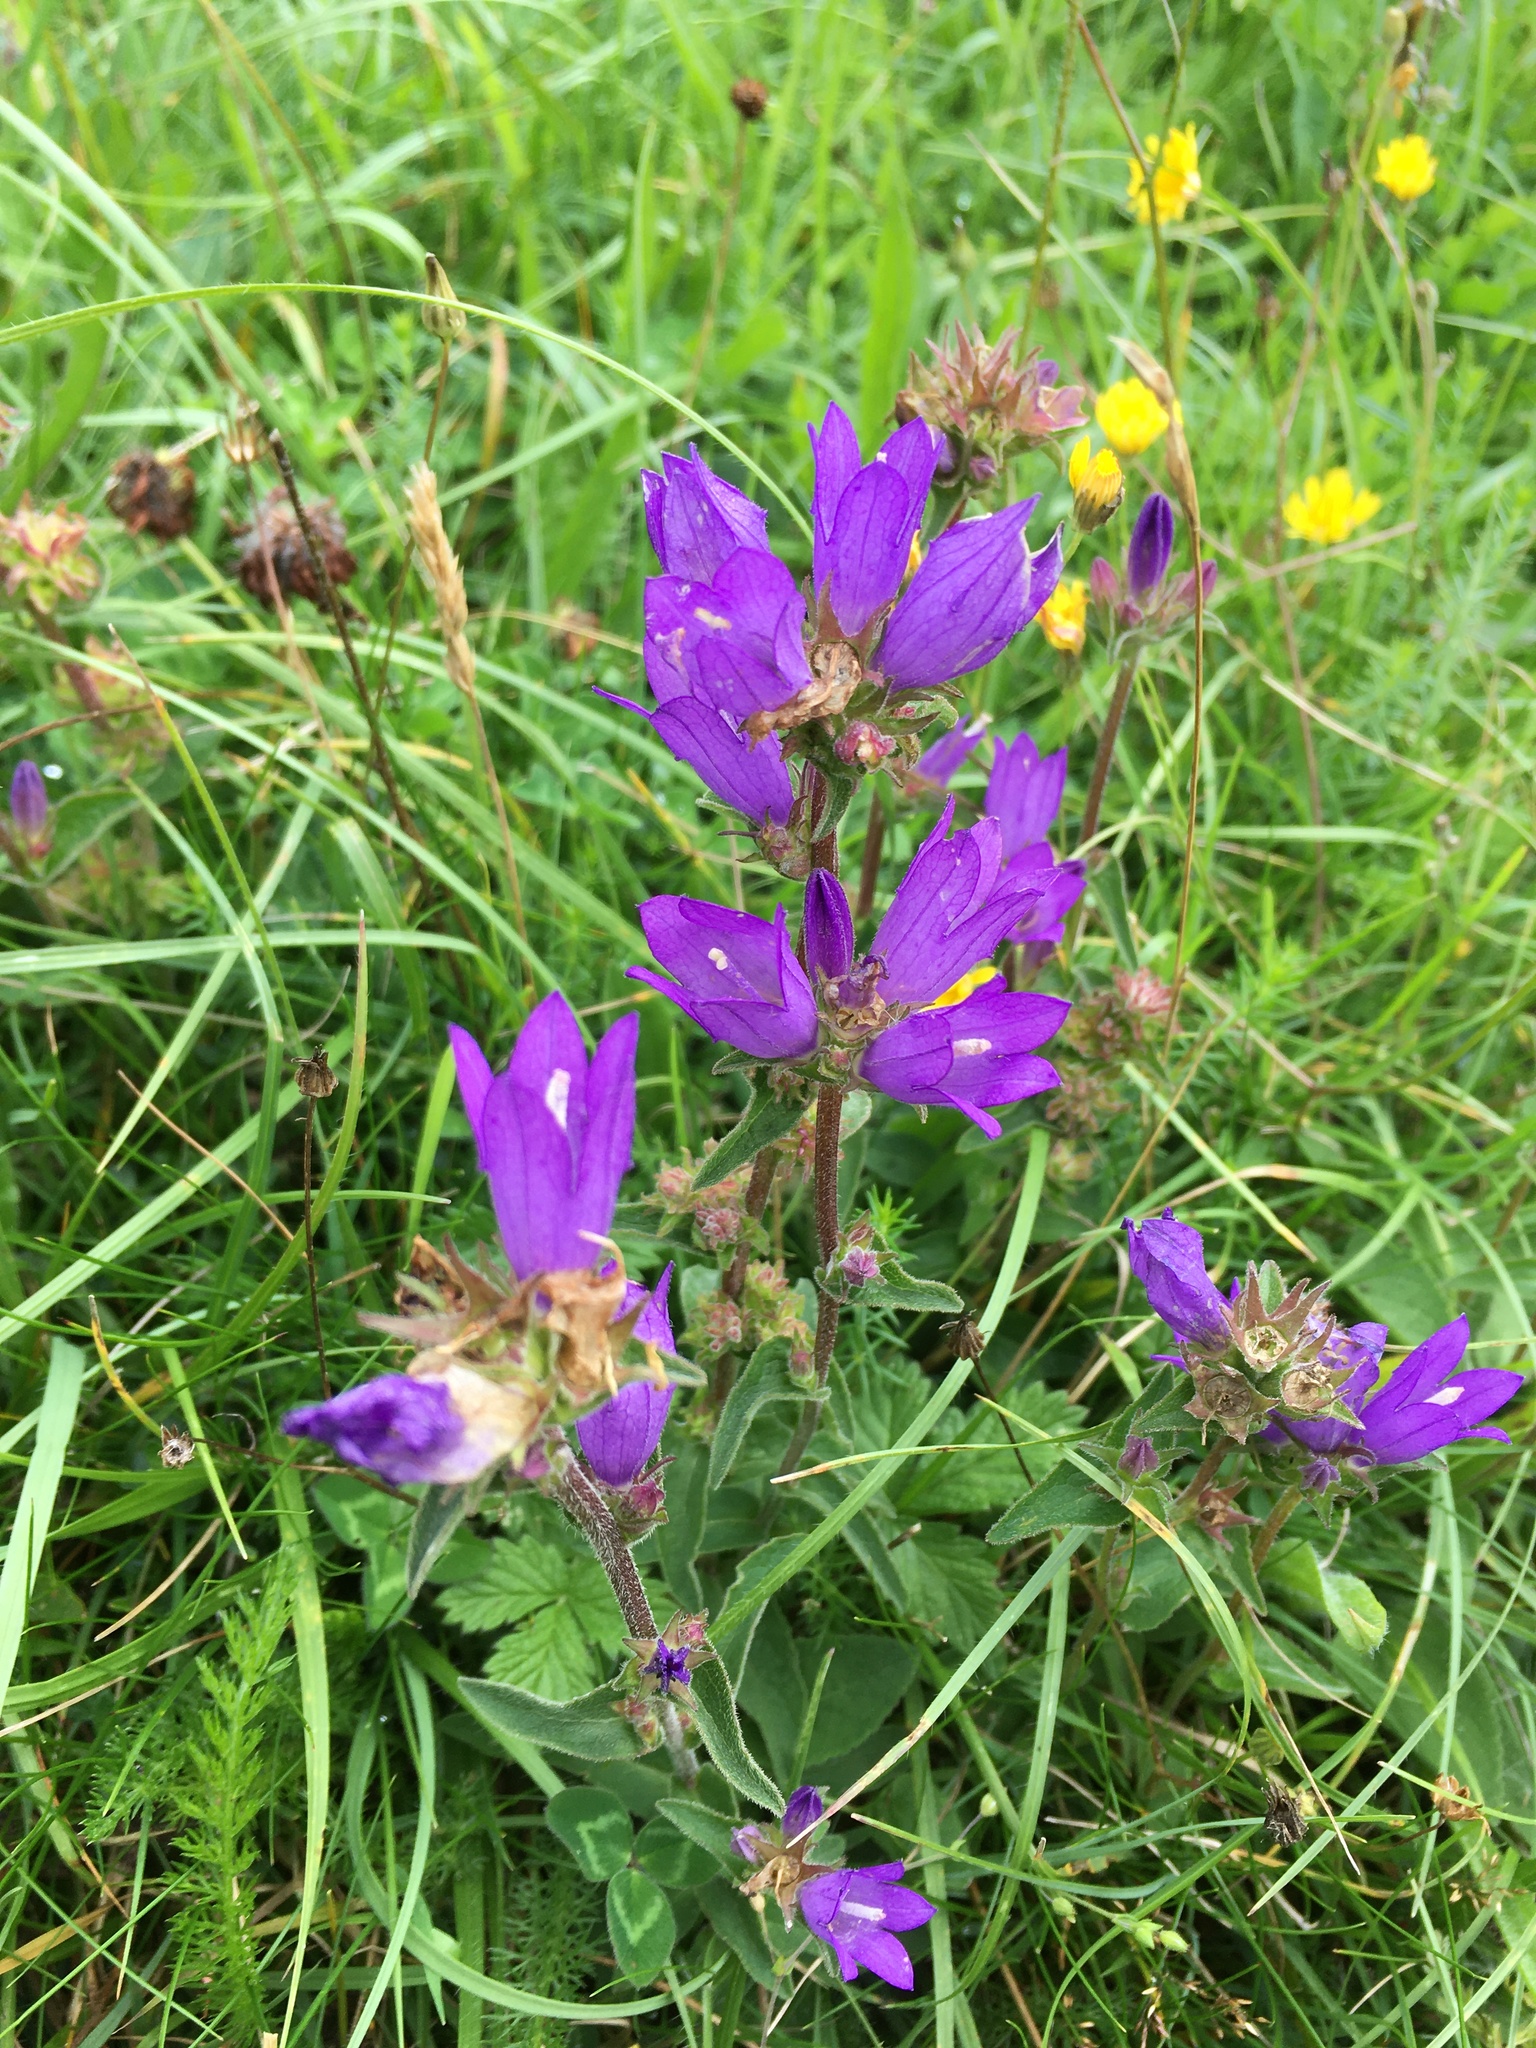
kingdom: Plantae
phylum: Tracheophyta
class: Magnoliopsida
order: Asterales
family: Campanulaceae
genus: Campanula
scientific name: Campanula glomerata
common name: Clustered bellflower
